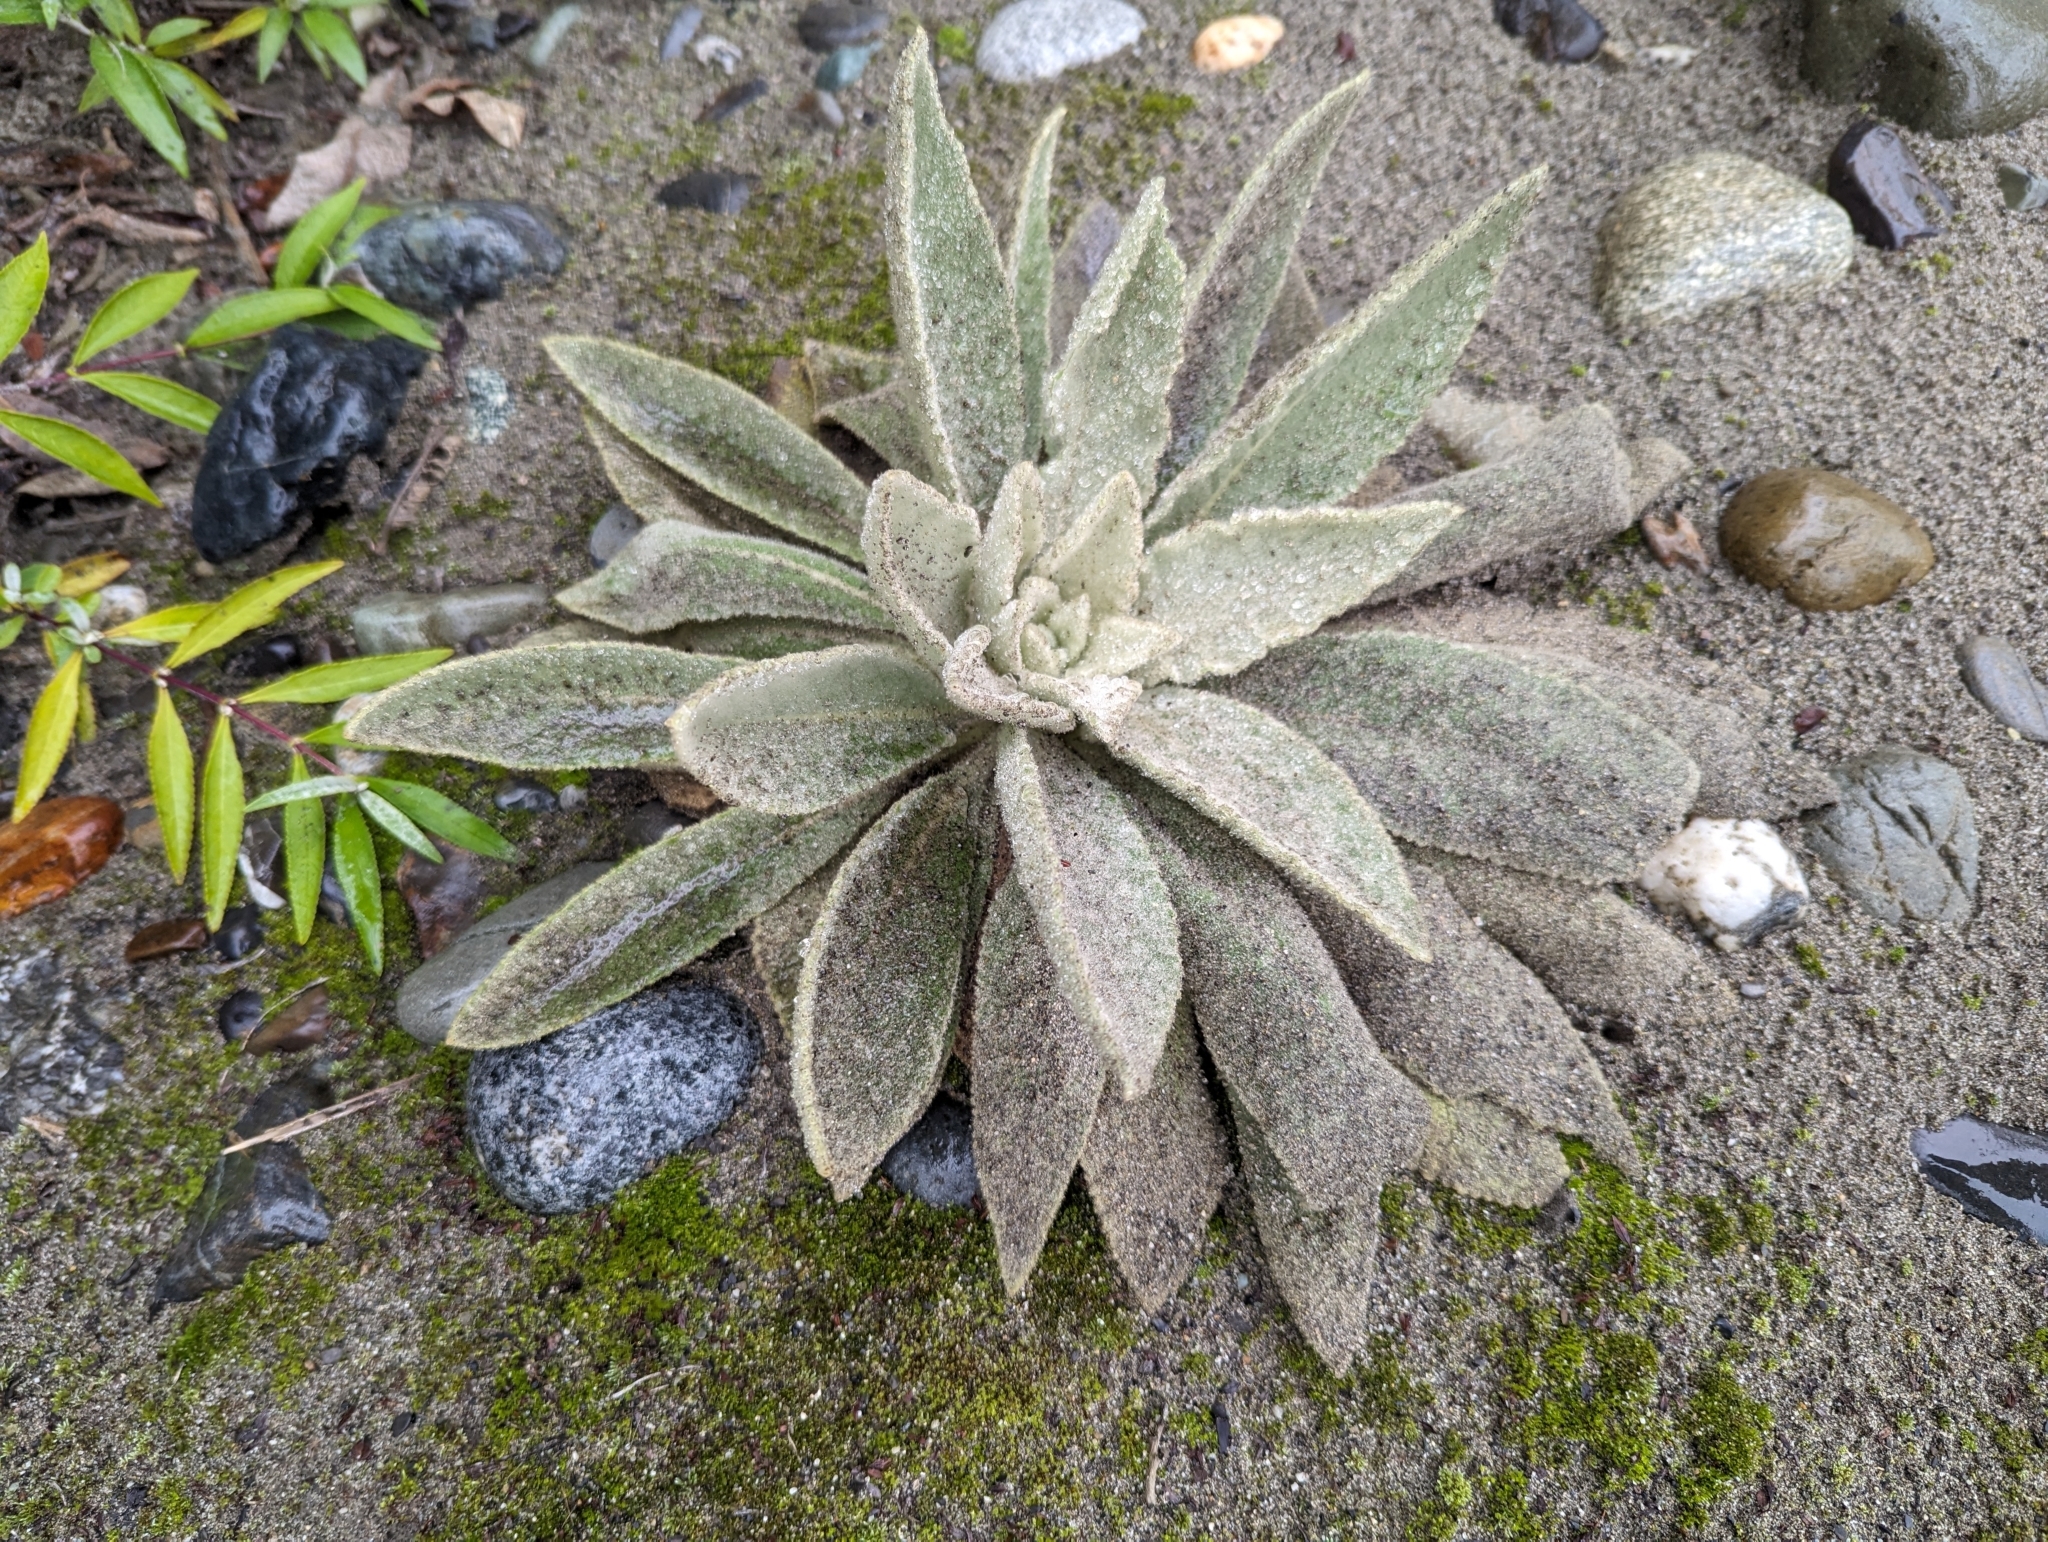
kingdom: Plantae
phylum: Tracheophyta
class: Magnoliopsida
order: Lamiales
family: Scrophulariaceae
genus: Verbascum
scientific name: Verbascum thapsus
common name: Common mullein
